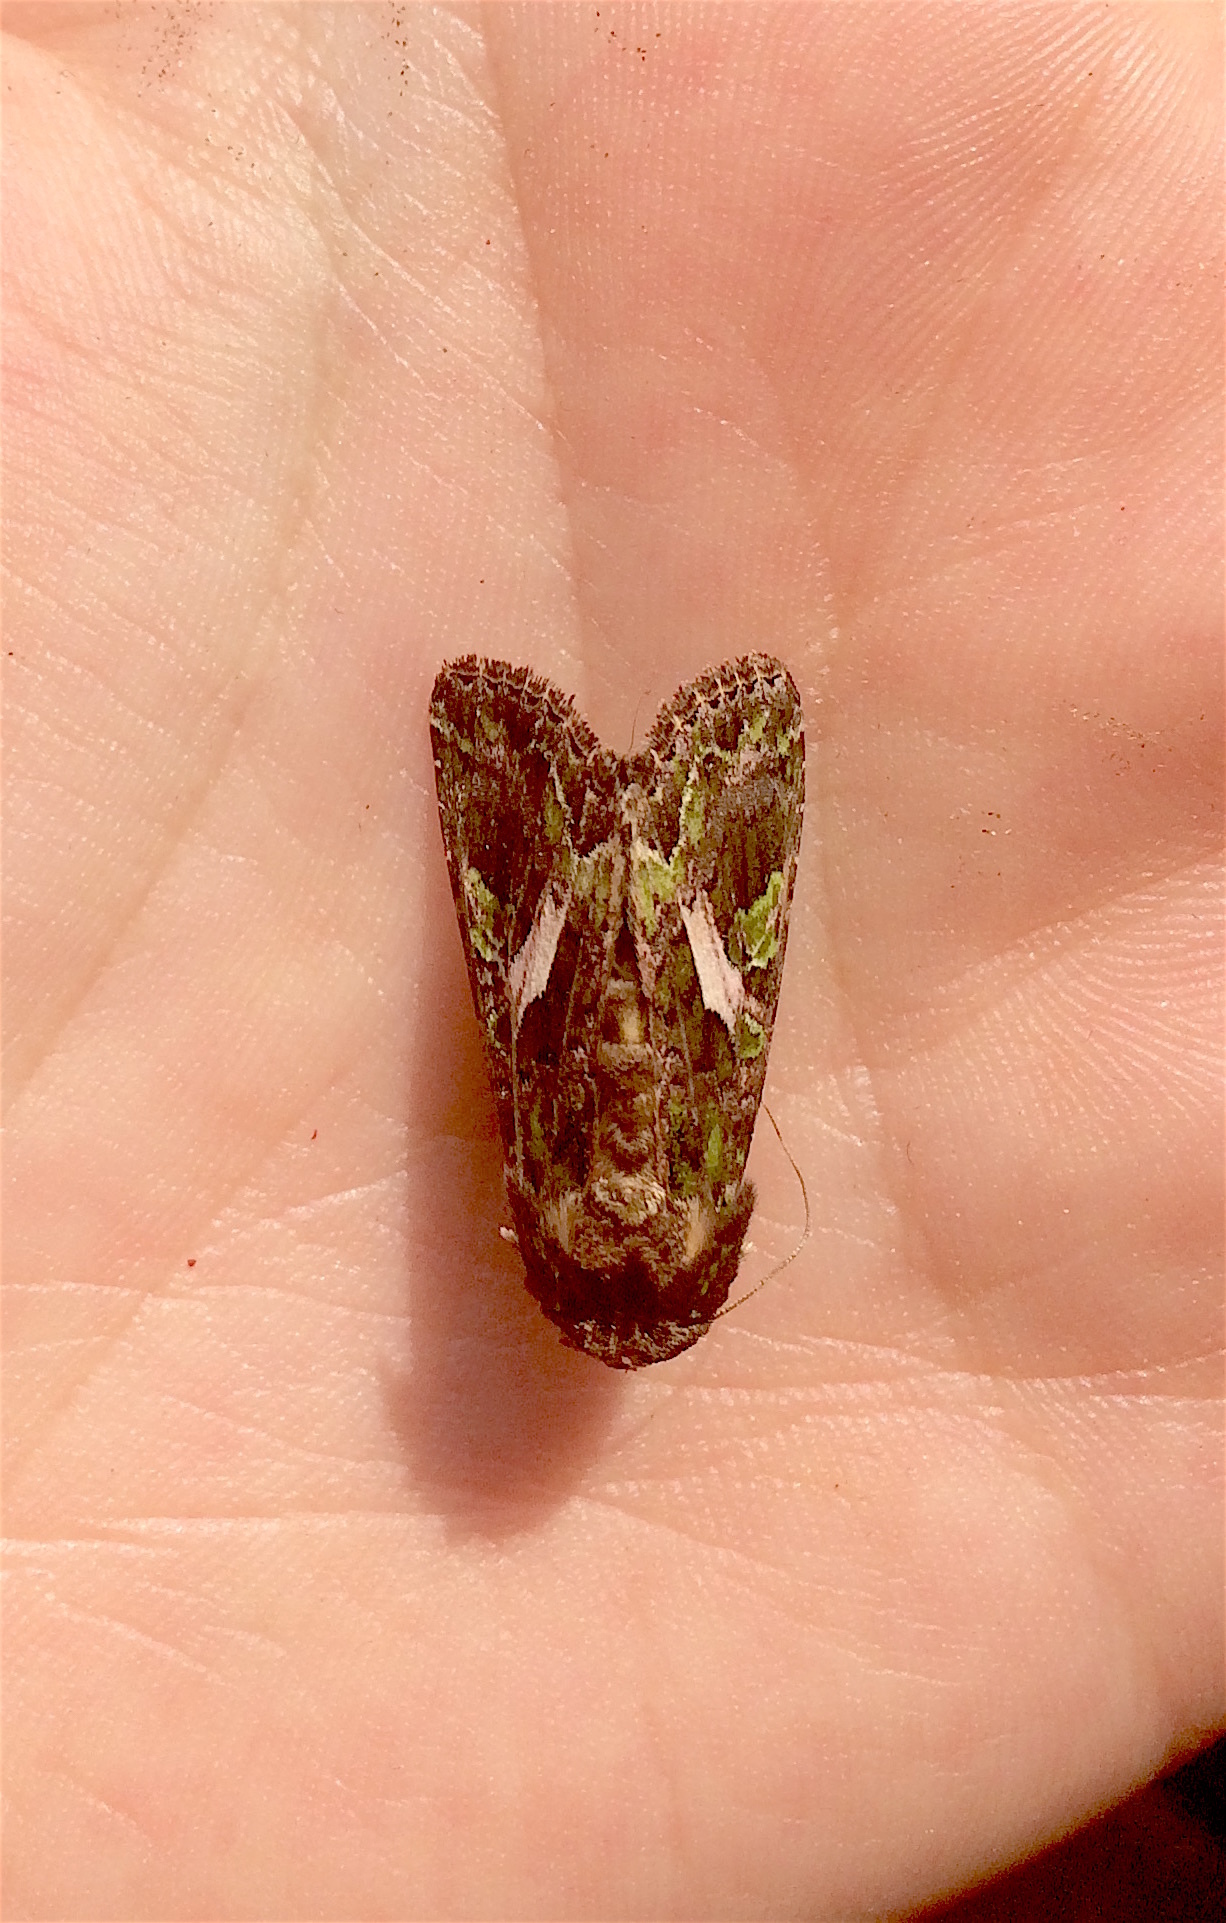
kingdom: Animalia
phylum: Arthropoda
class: Insecta
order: Lepidoptera
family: Noctuidae
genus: Trachea
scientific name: Trachea atriplicis
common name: Orache moth
